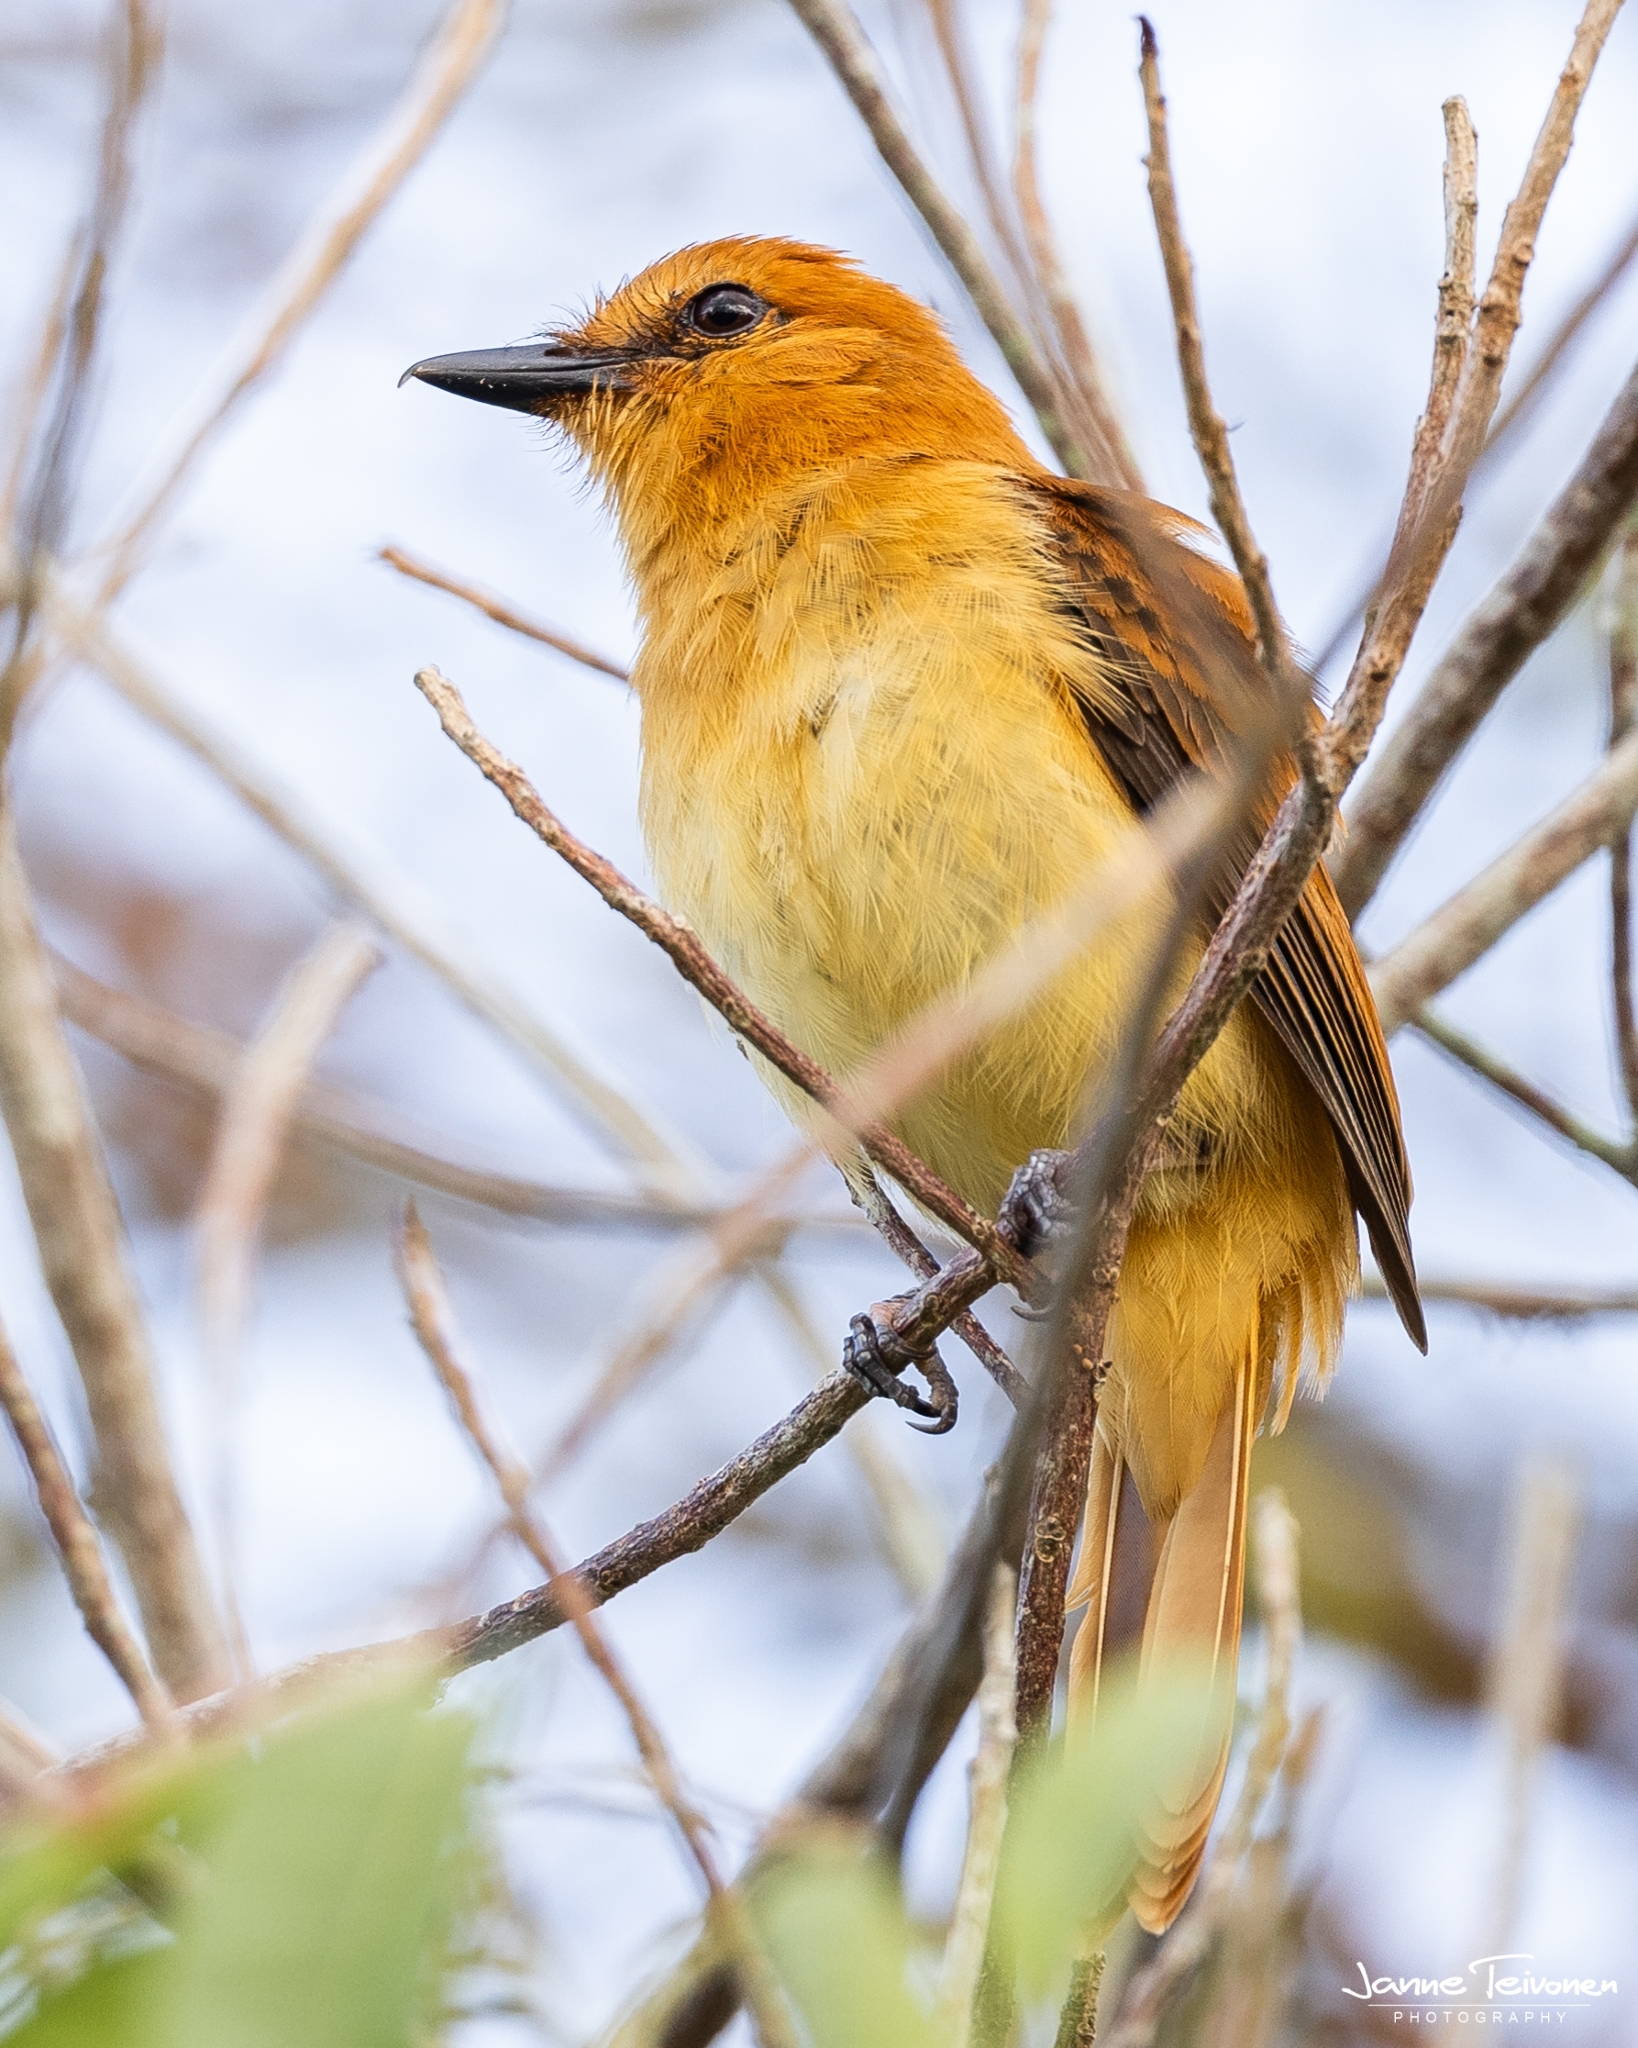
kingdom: Animalia
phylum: Chordata
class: Aves
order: Passeriformes
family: Tyrannidae
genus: Attila
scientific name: Attila cinnamomeus
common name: Cinnamon attila
